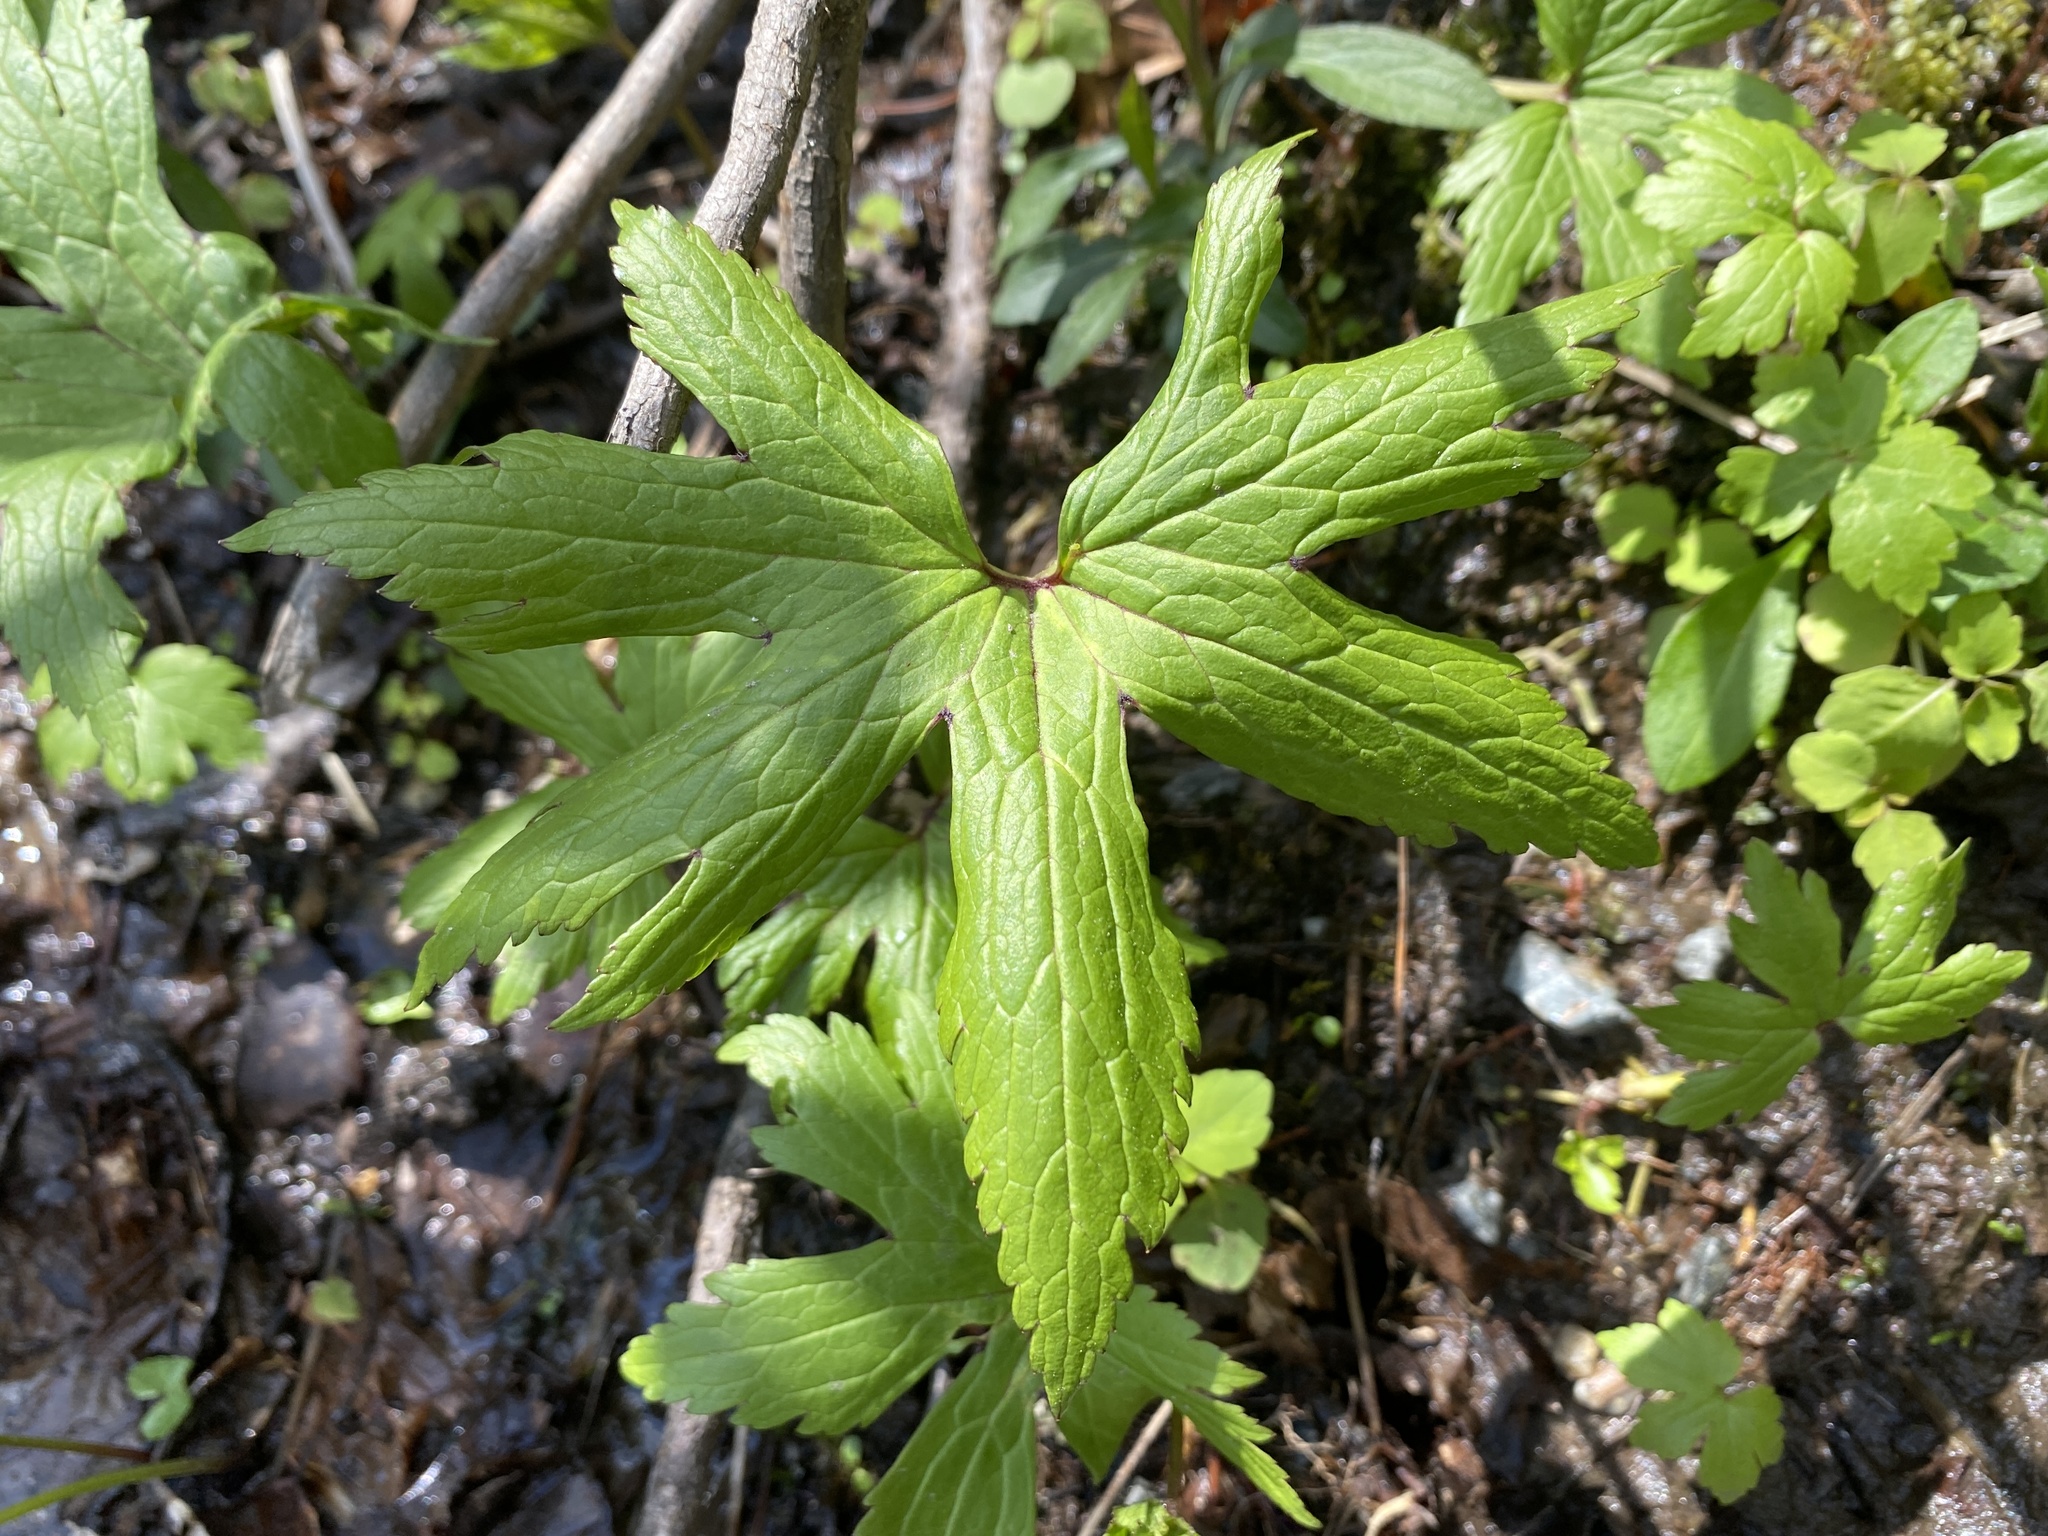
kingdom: Plantae
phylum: Tracheophyta
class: Magnoliopsida
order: Ranunculales
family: Ranunculaceae
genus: Trautvetteria
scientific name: Trautvetteria carolinensis
